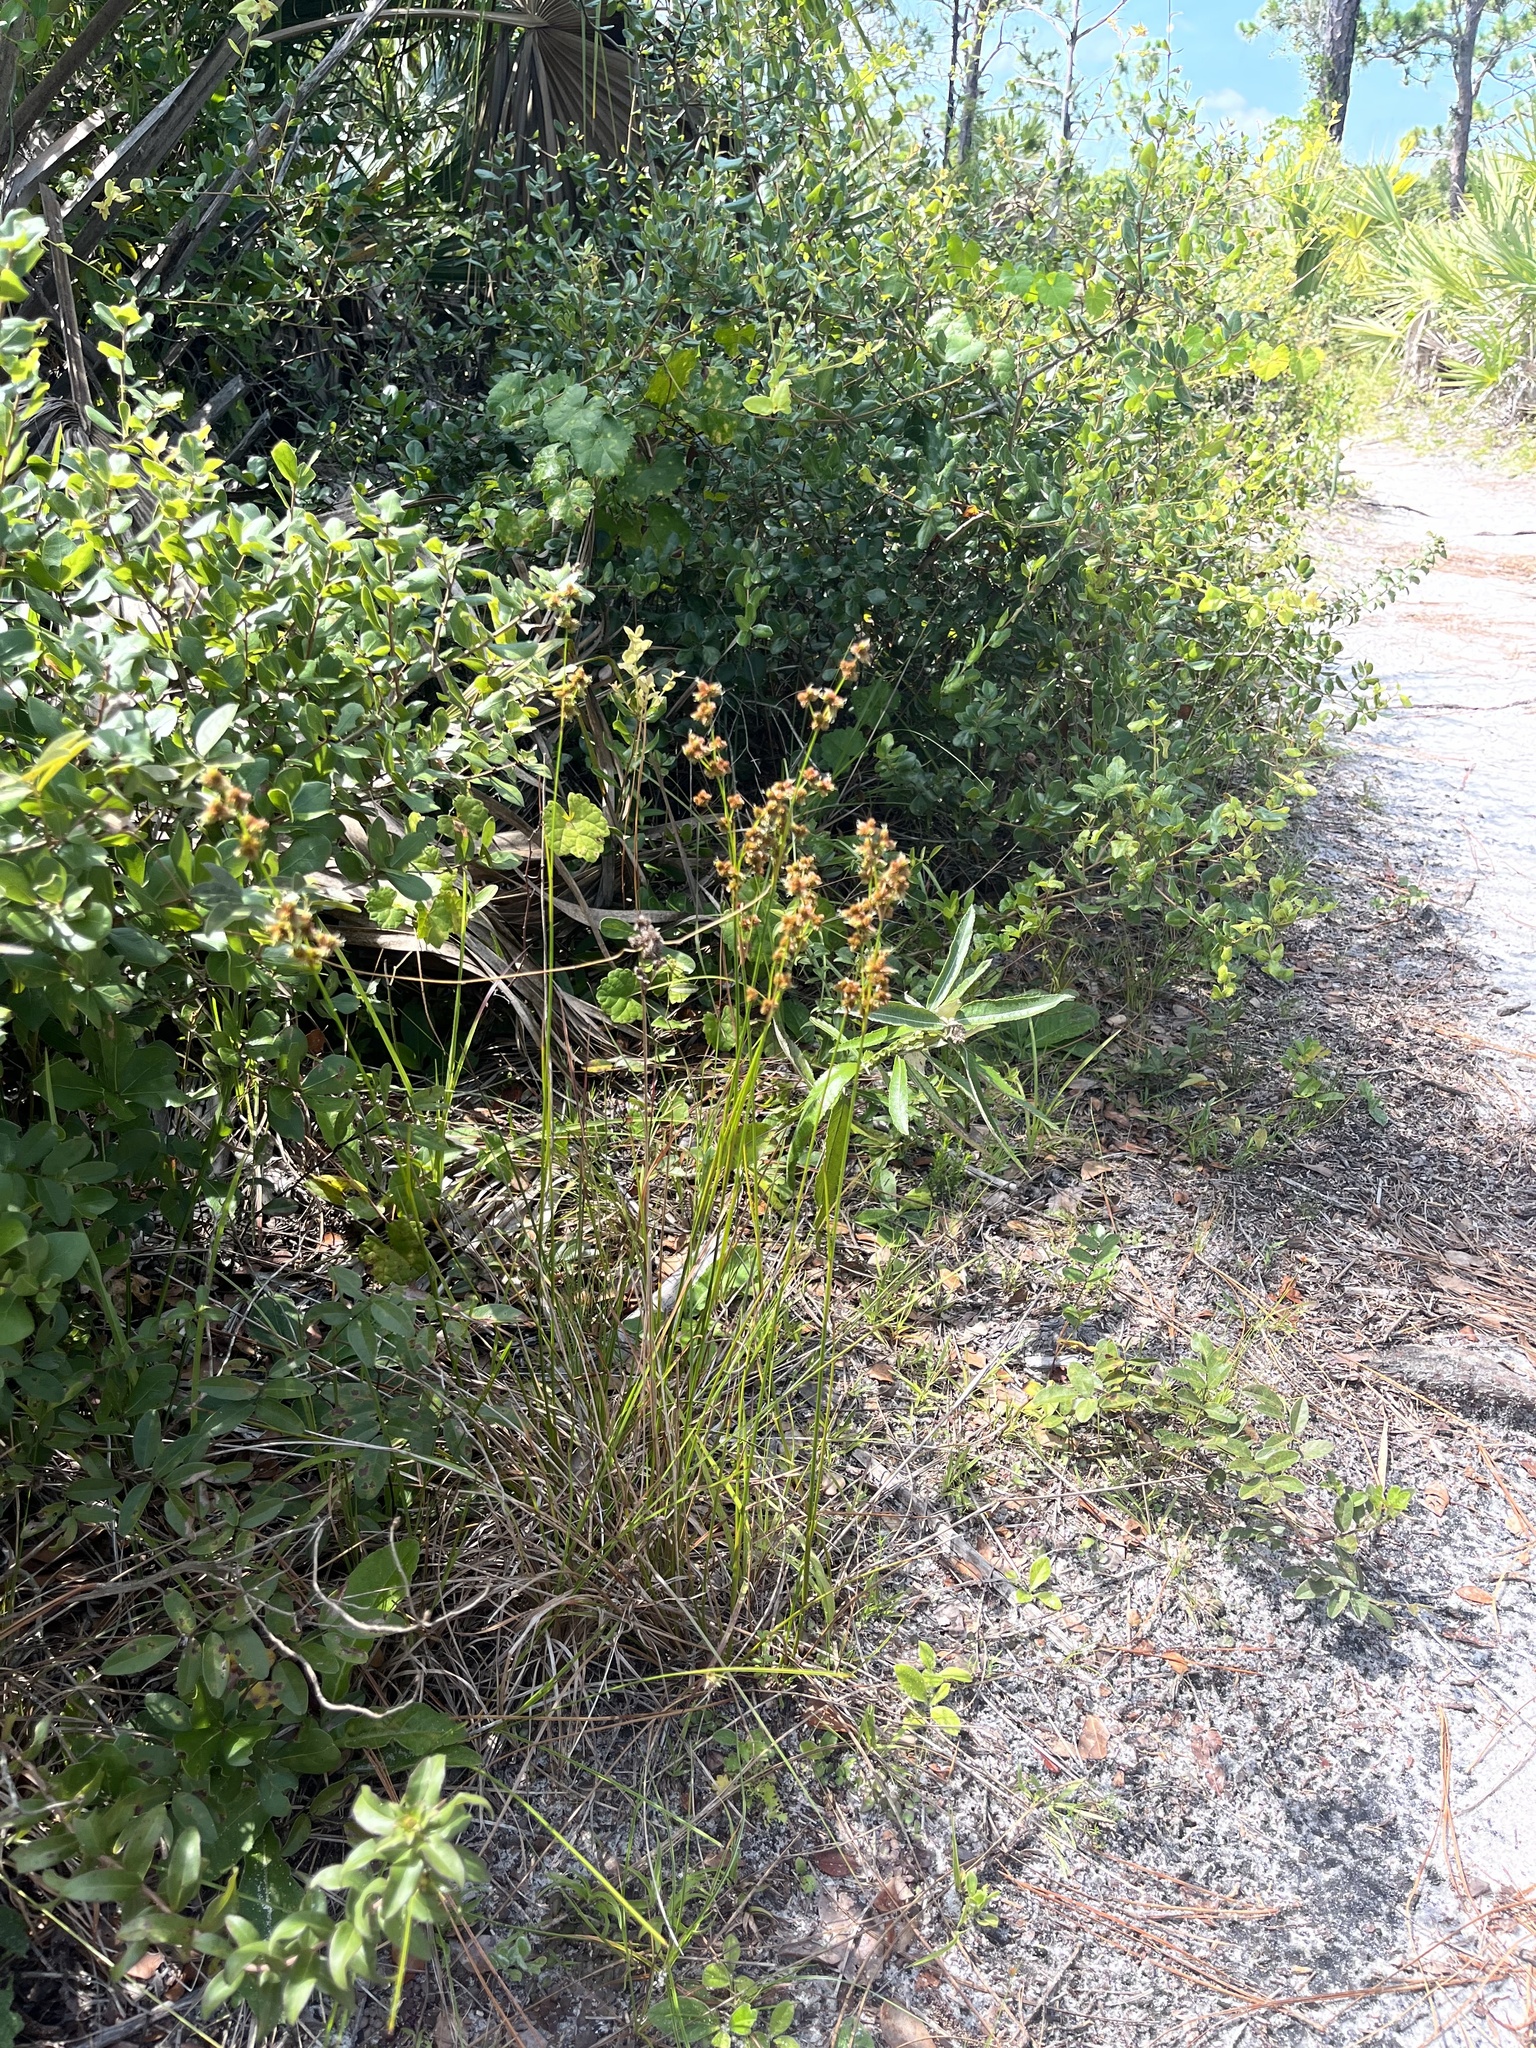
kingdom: Plantae
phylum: Tracheophyta
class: Liliopsida
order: Poales
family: Juncaceae
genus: Juncus
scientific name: Juncus scirpoides
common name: Needlepod rush
